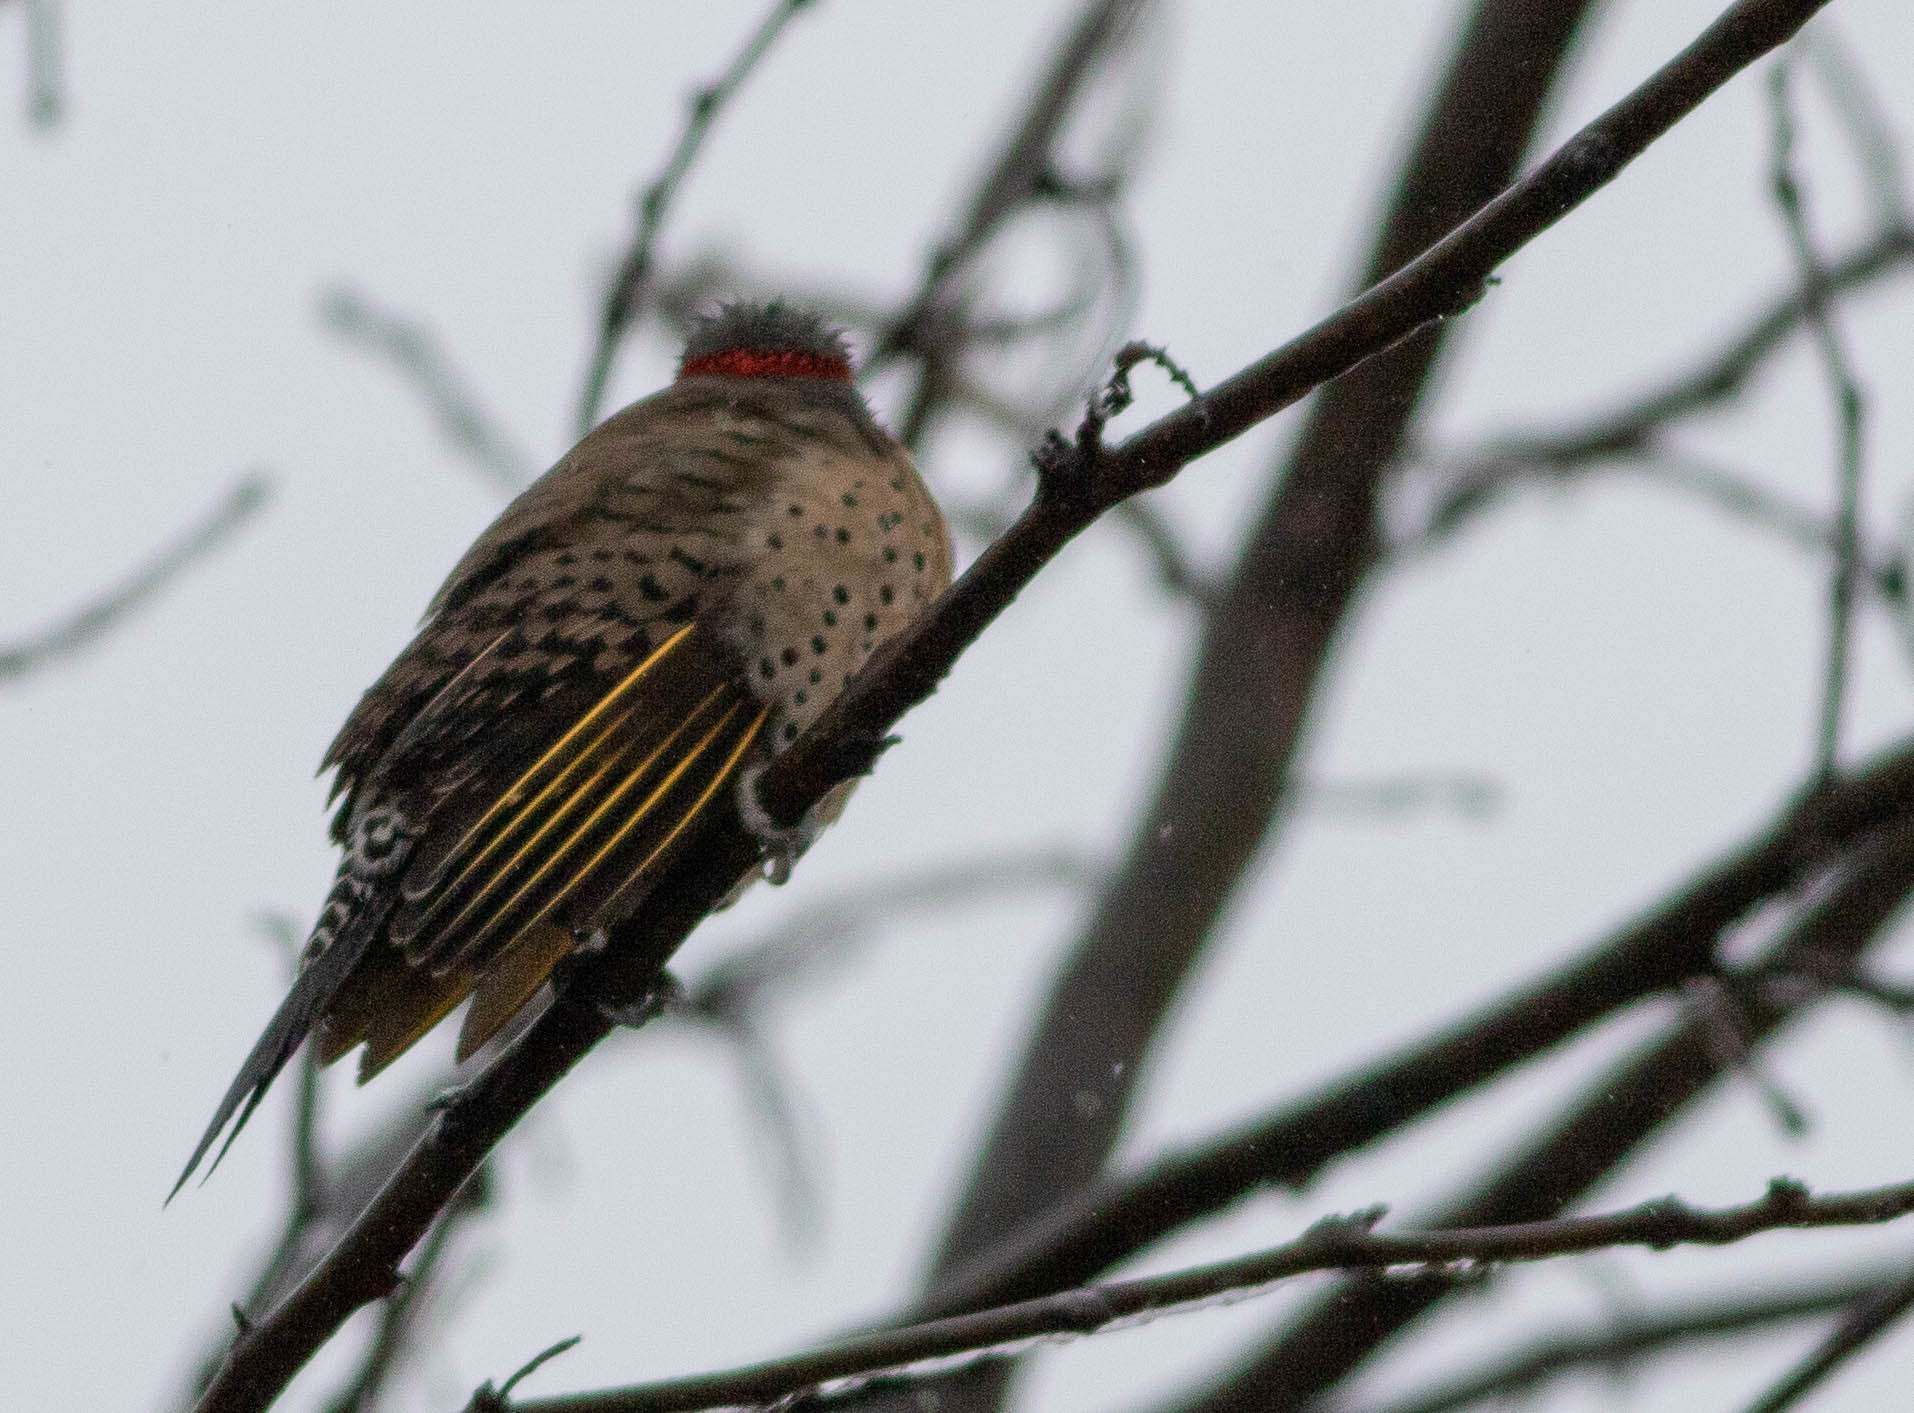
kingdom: Animalia
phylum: Chordata
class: Aves
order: Piciformes
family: Picidae
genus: Colaptes
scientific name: Colaptes auratus
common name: Northern flicker
